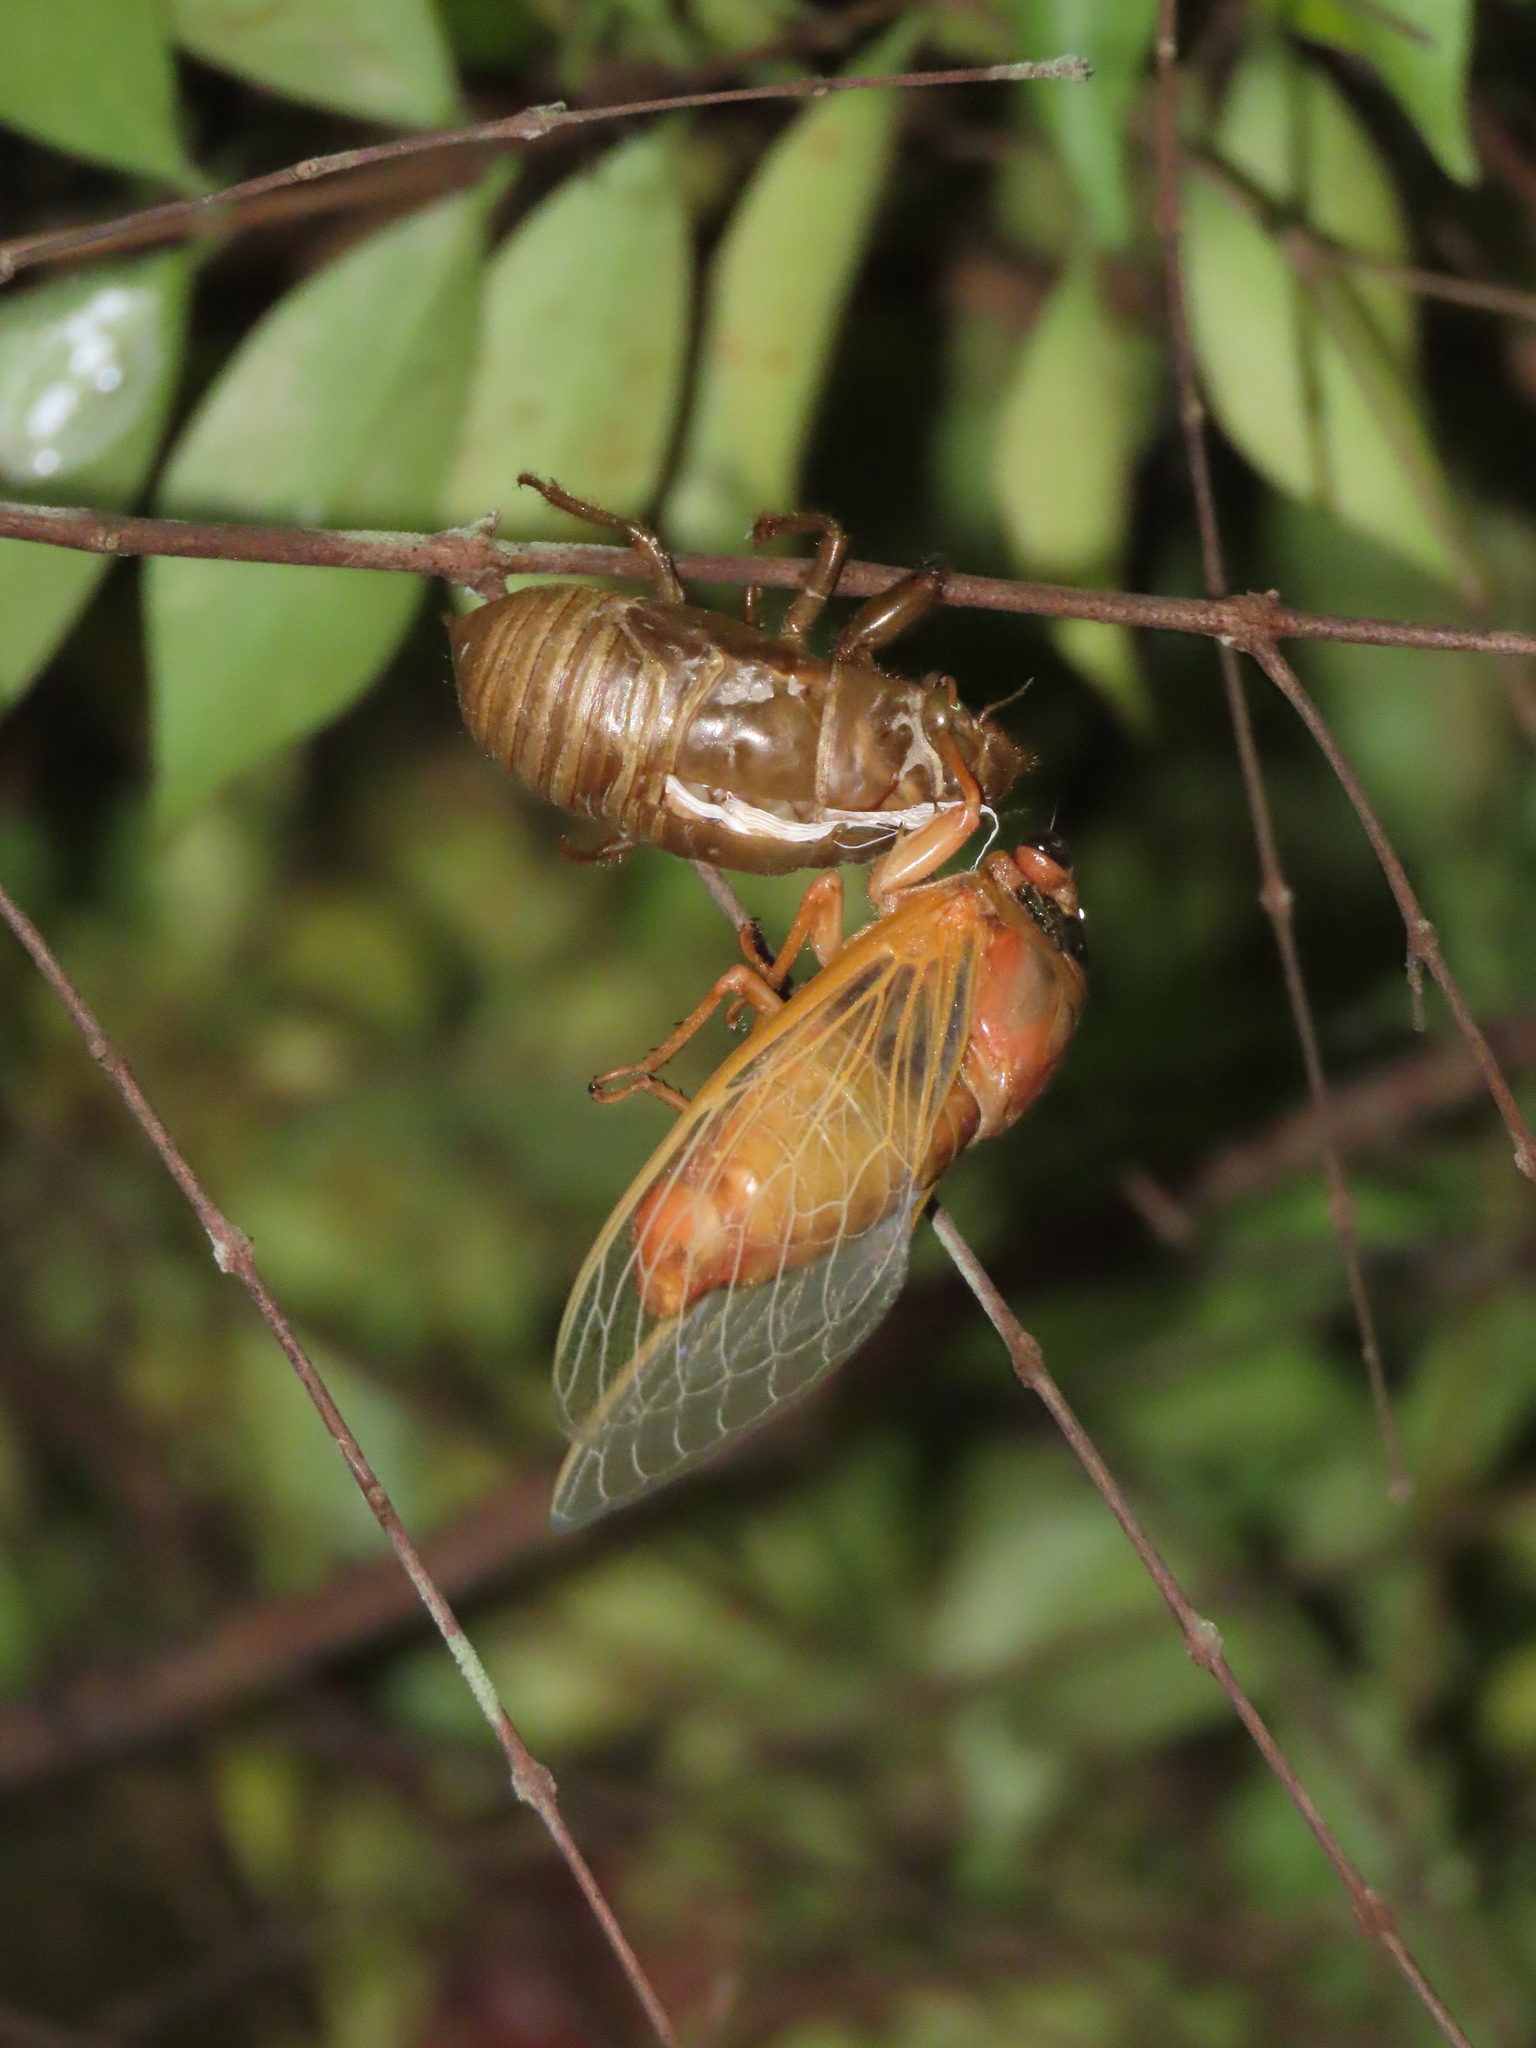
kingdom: Animalia
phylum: Arthropoda
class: Insecta
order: Hemiptera
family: Cicadidae
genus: Cryptotympana
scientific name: Cryptotympana atrata
